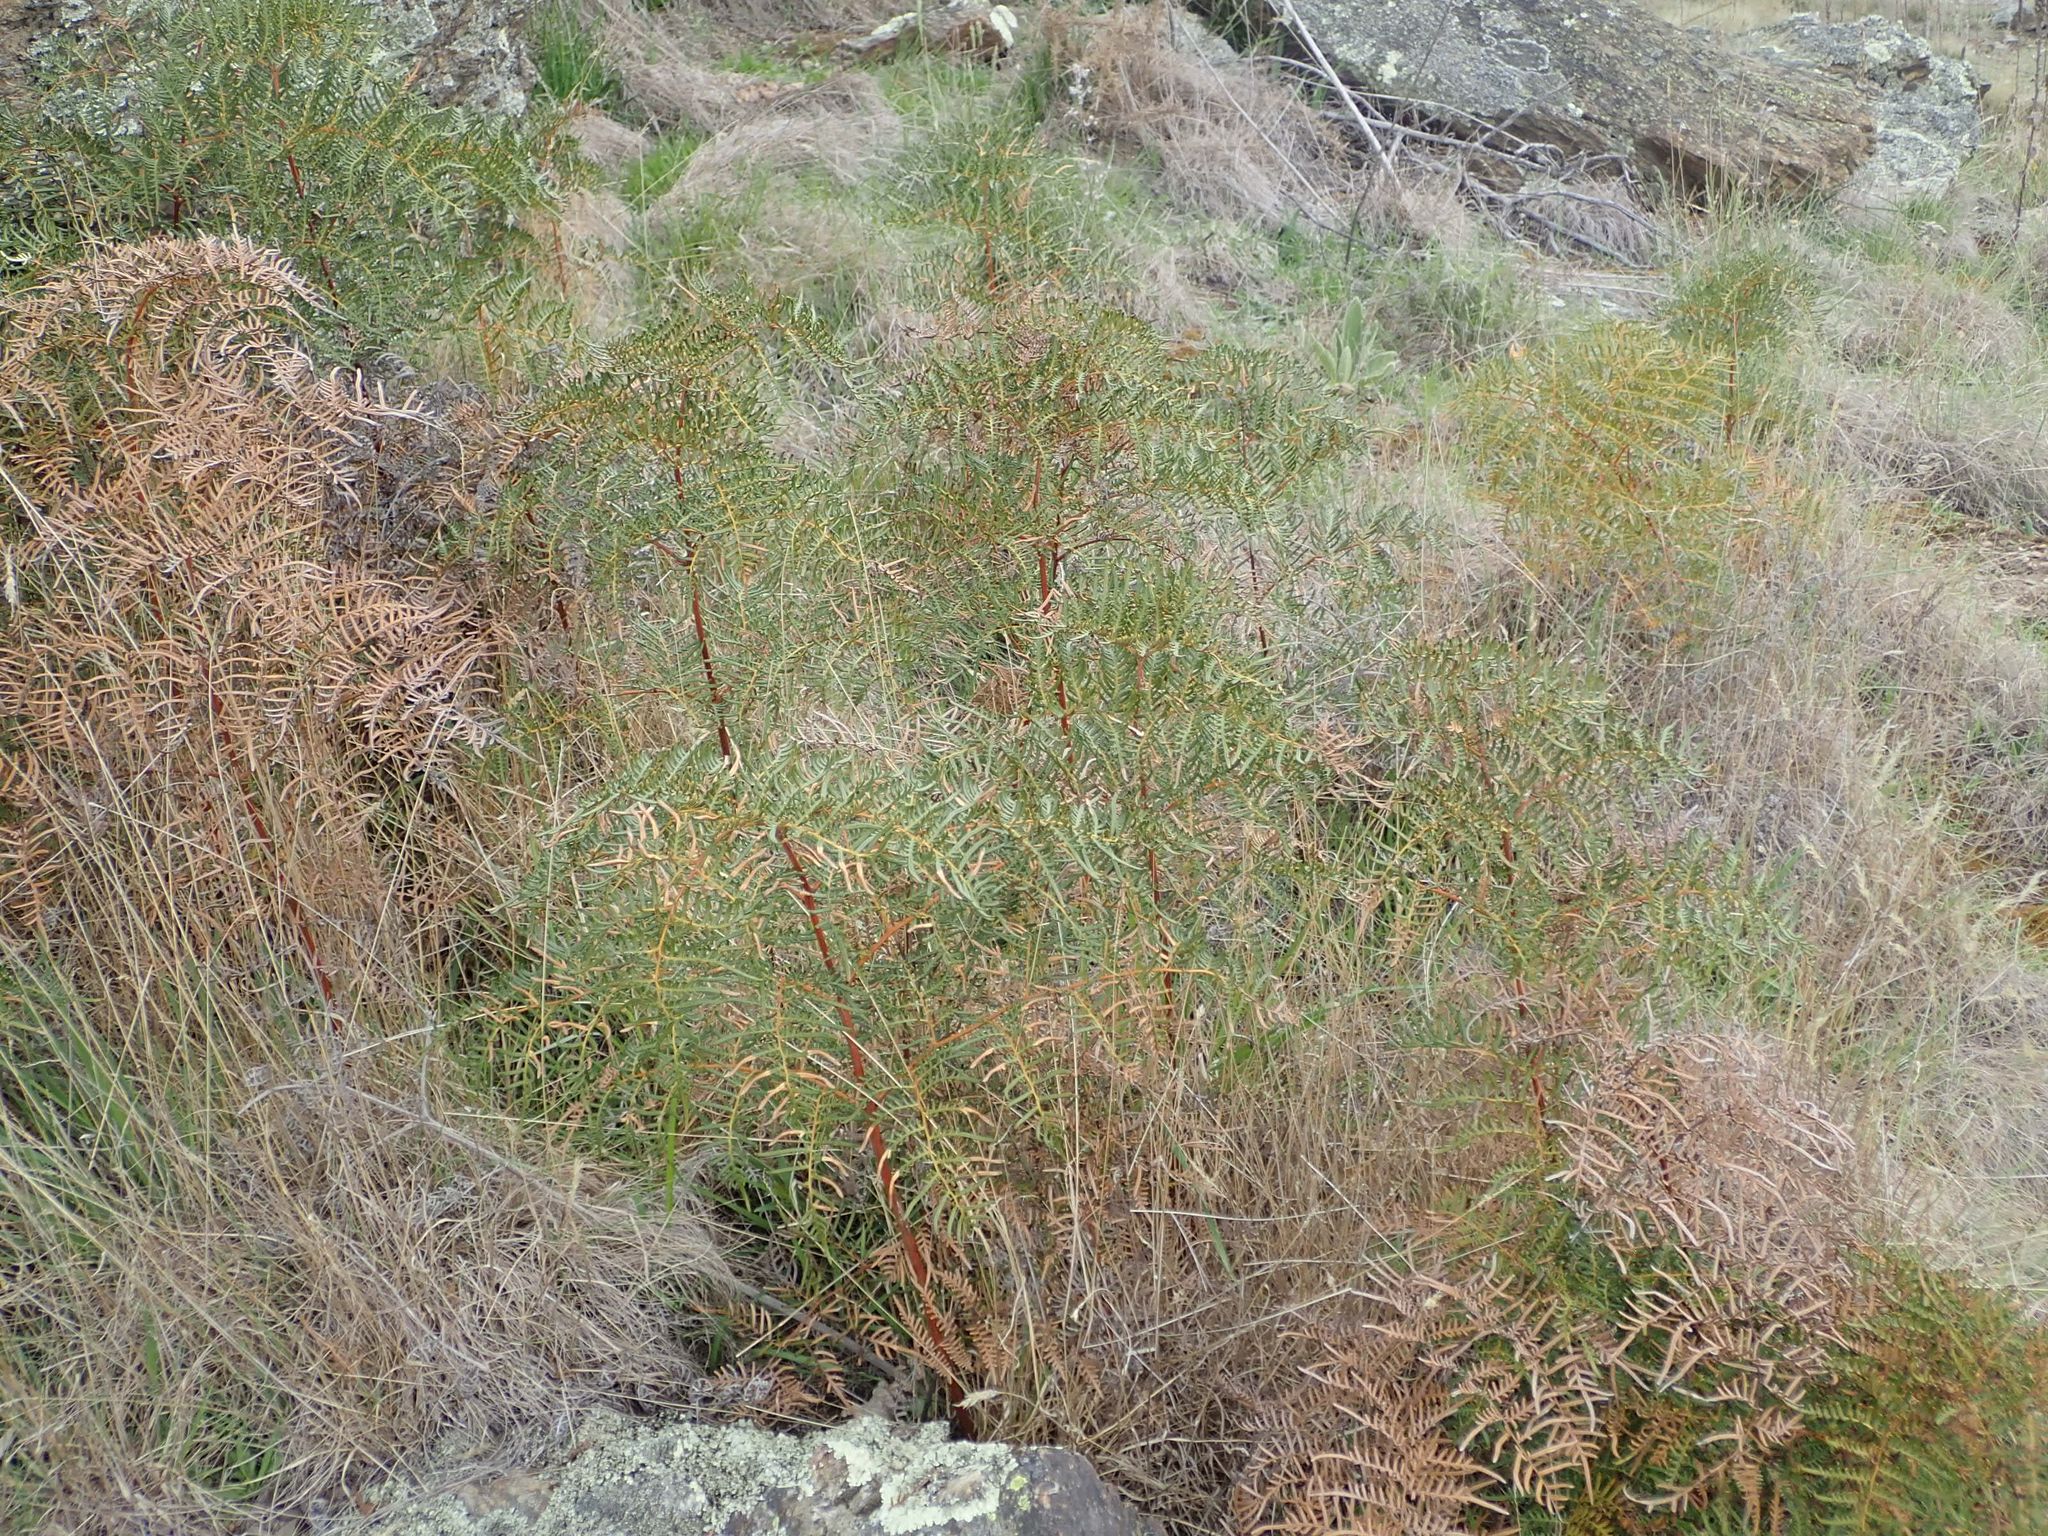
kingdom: Plantae
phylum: Tracheophyta
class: Polypodiopsida
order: Polypodiales
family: Dennstaedtiaceae
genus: Pteridium
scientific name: Pteridium esculentum
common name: Bracken fern
